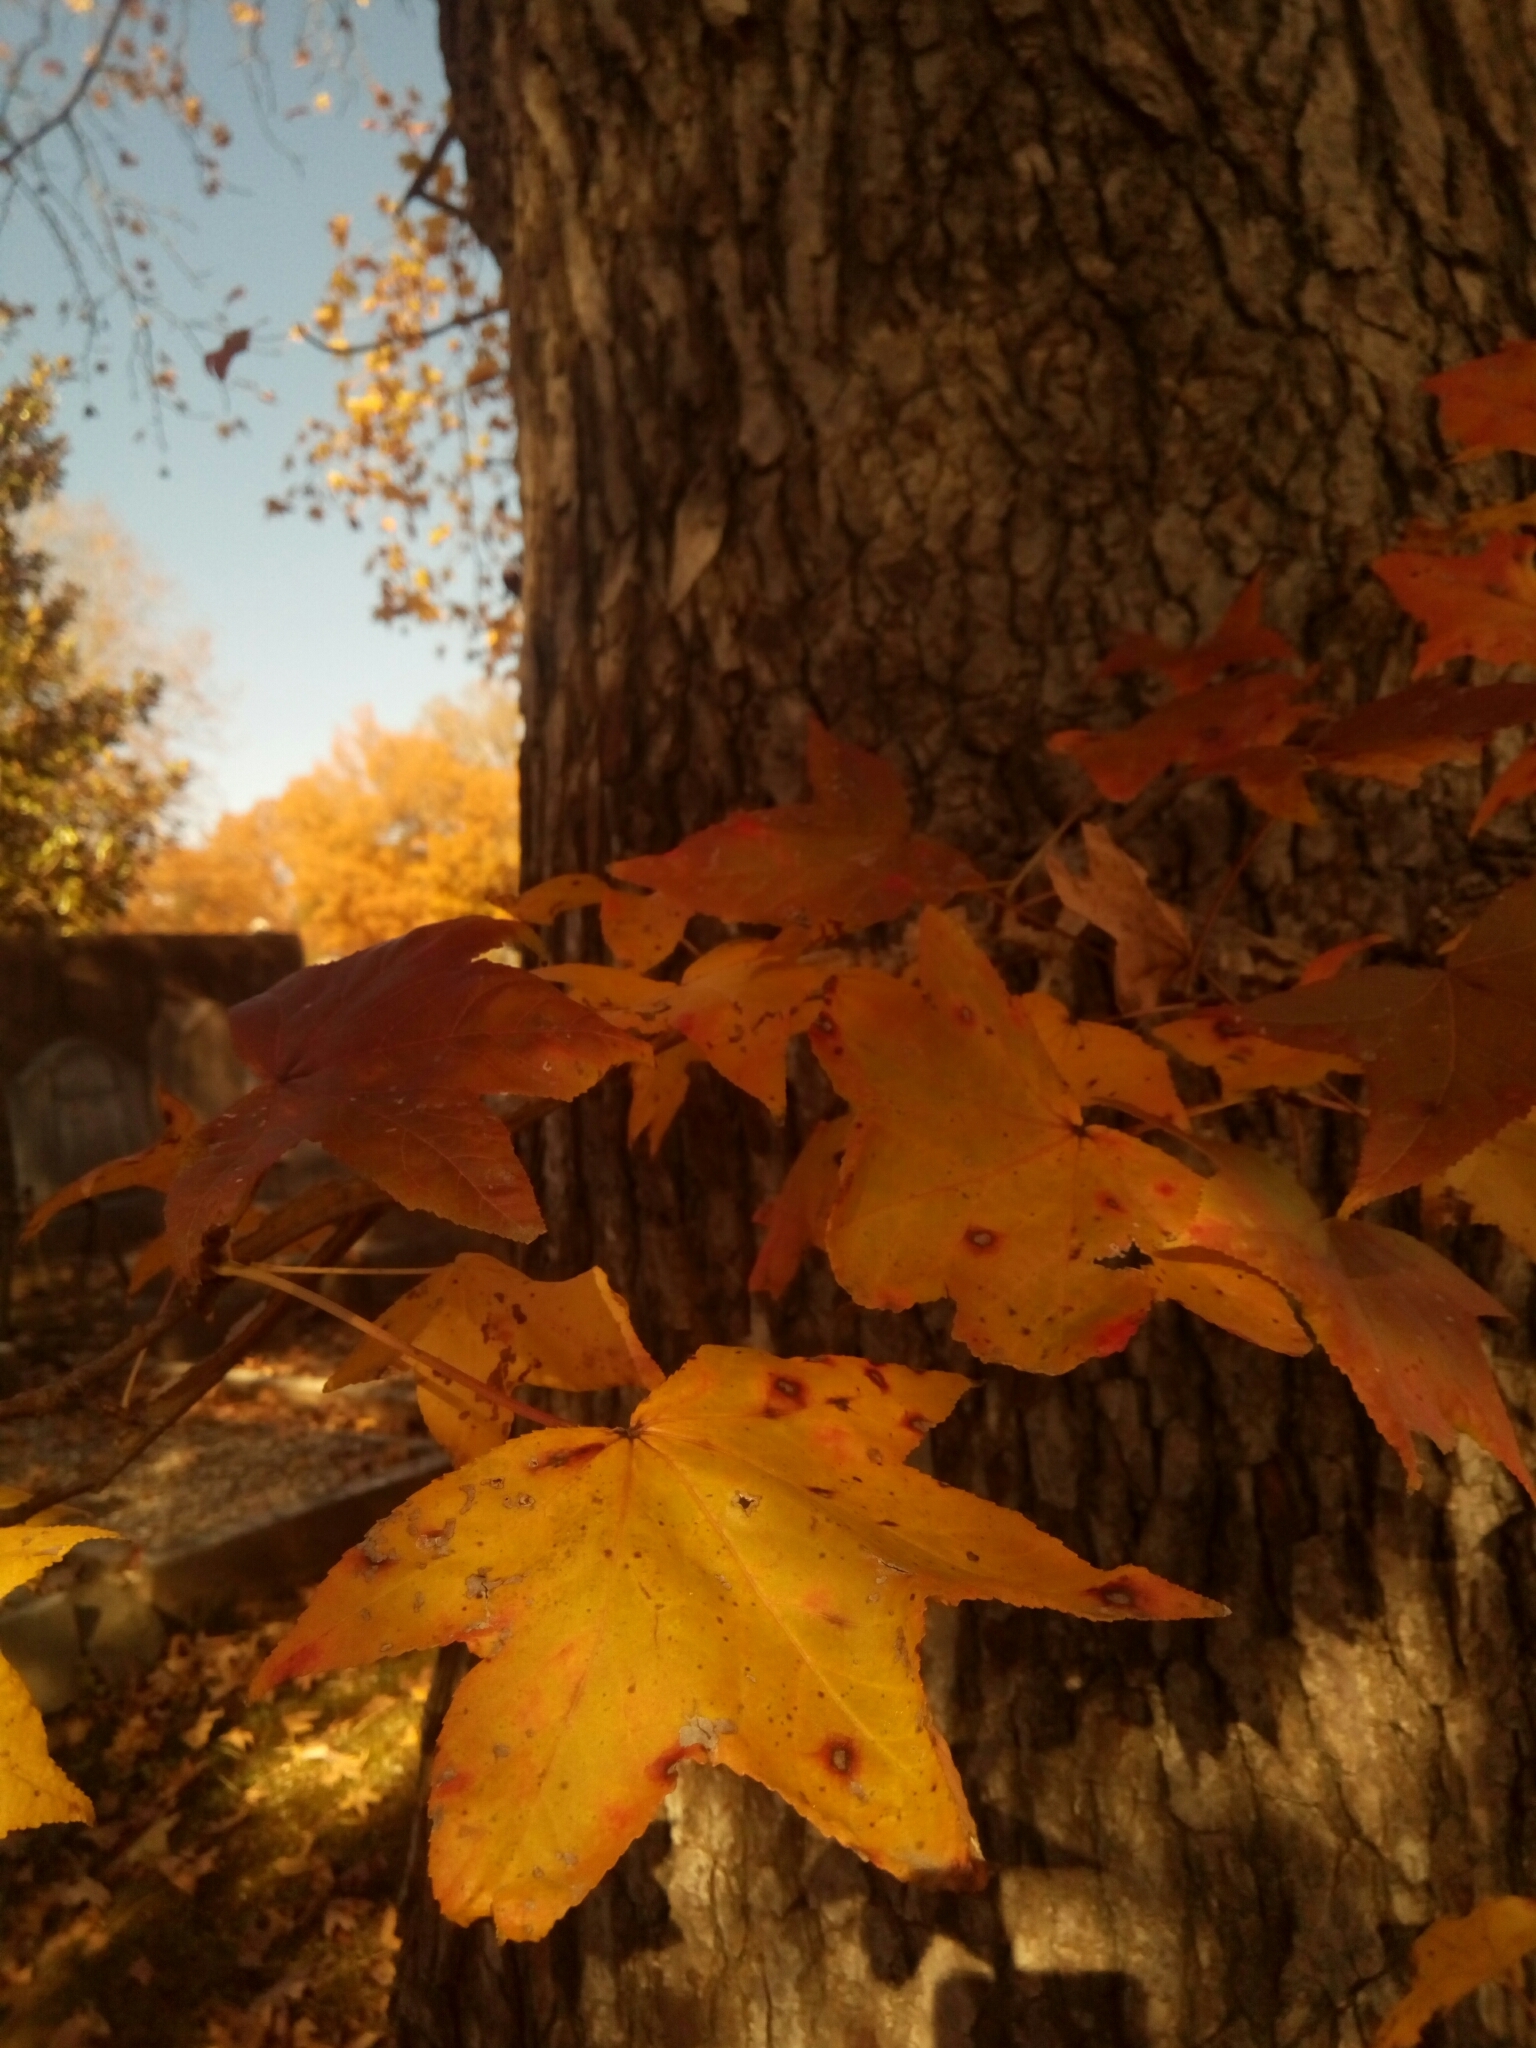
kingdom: Plantae
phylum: Tracheophyta
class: Magnoliopsida
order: Saxifragales
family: Altingiaceae
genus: Liquidambar
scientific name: Liquidambar styraciflua
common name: Sweet gum
